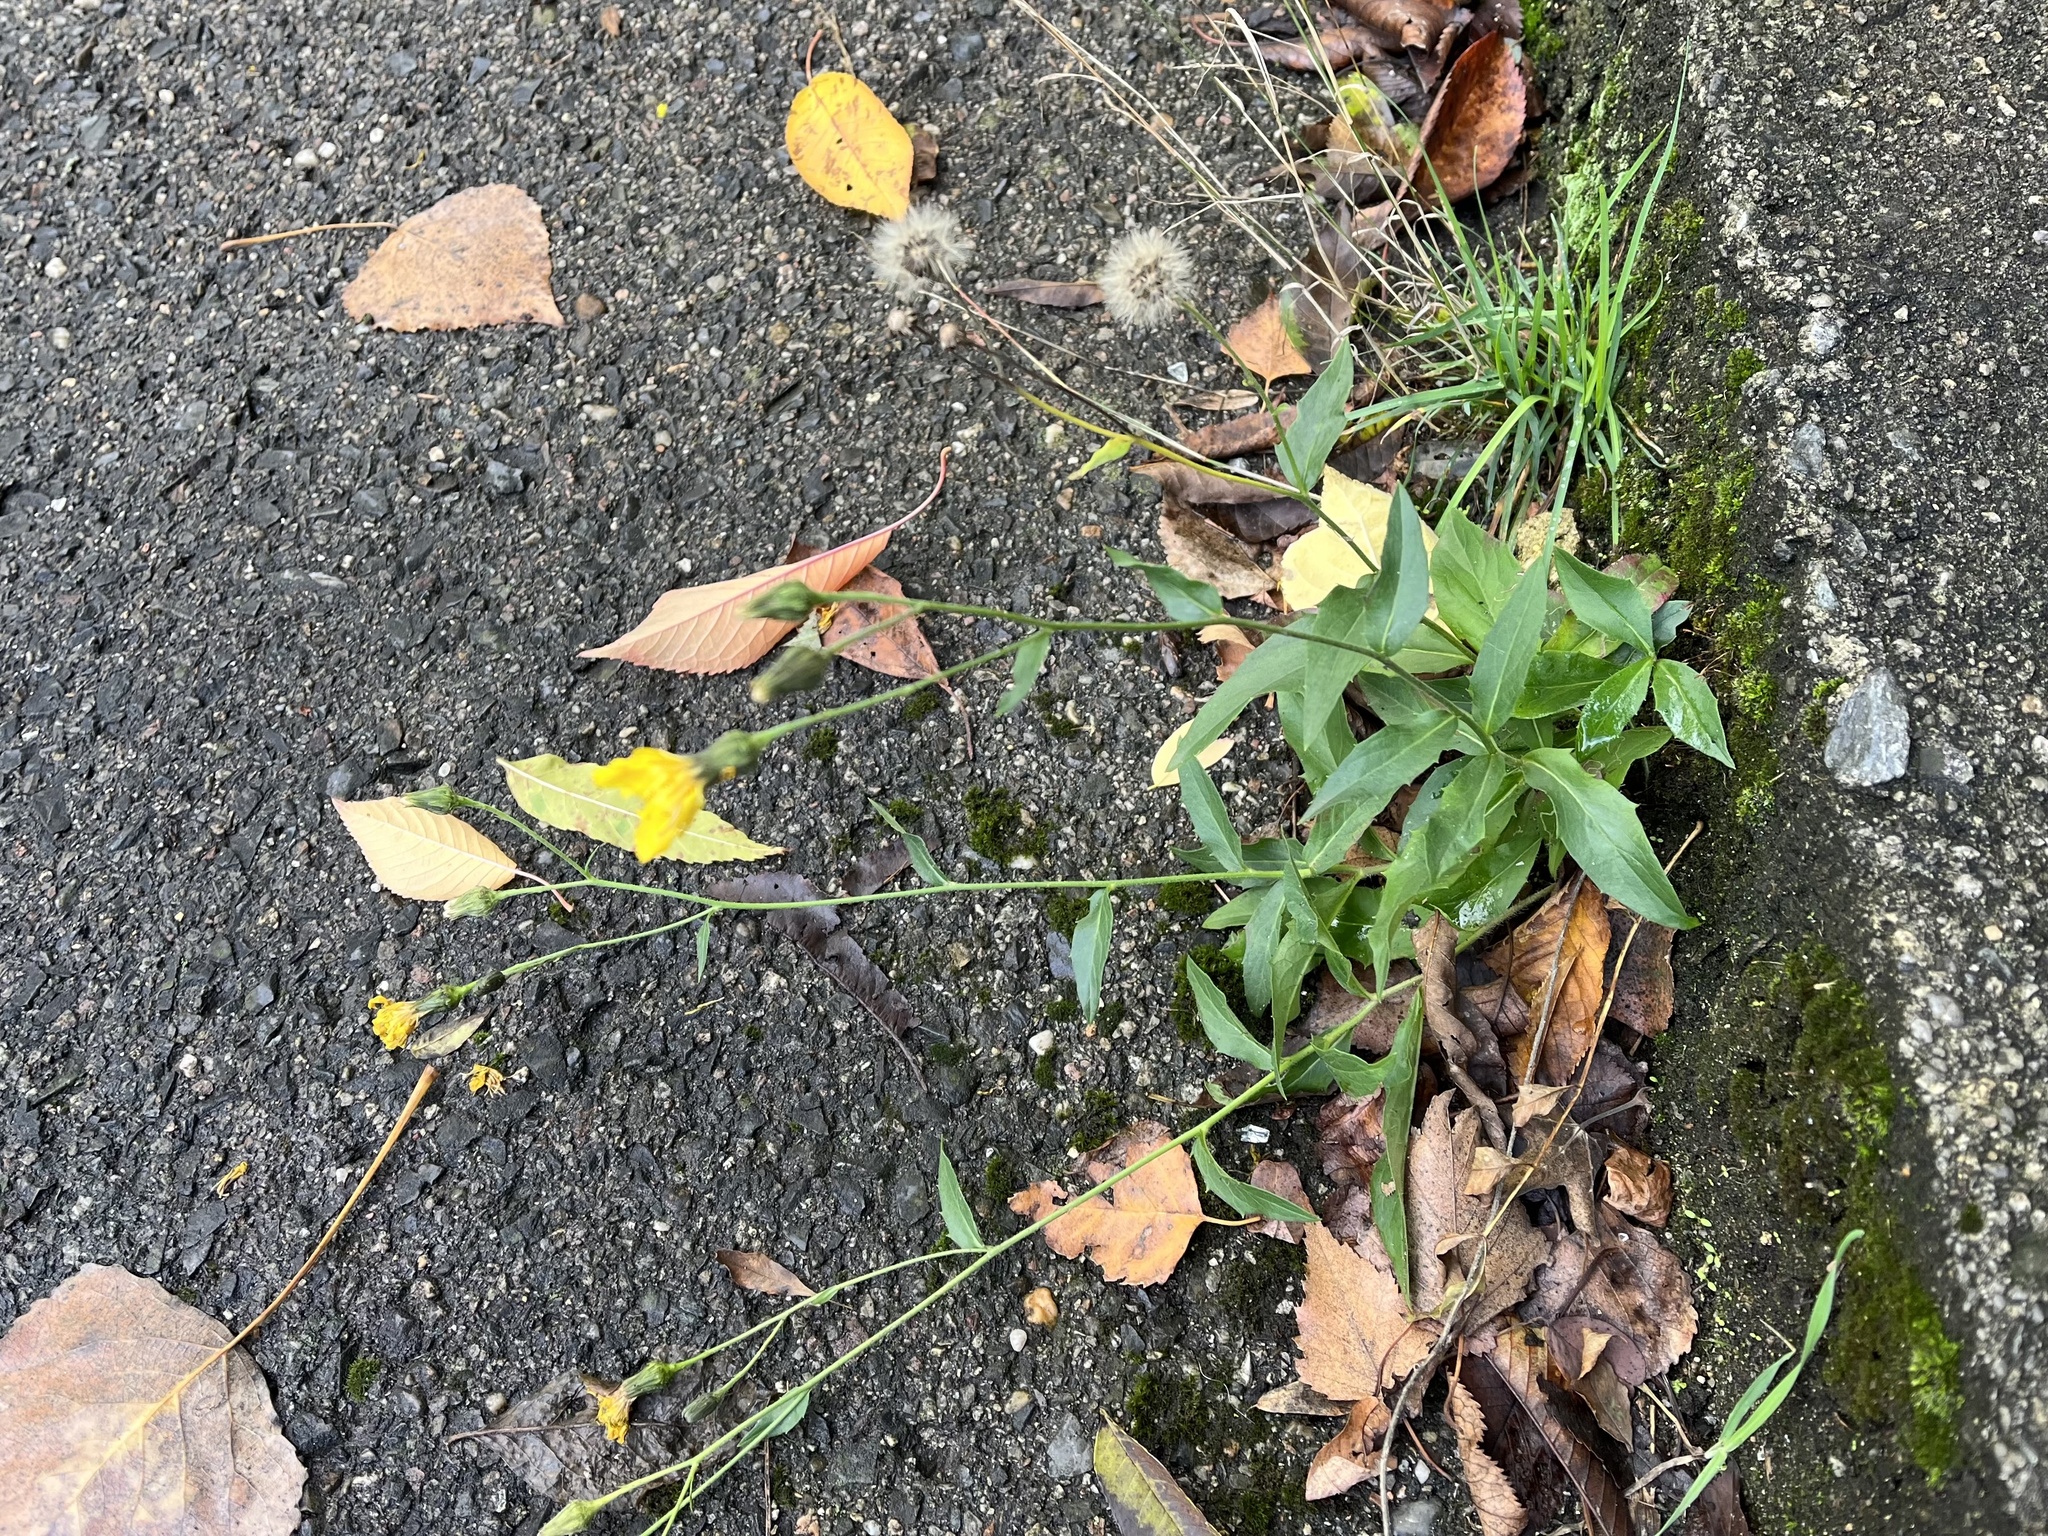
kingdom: Plantae
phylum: Tracheophyta
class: Magnoliopsida
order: Asterales
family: Asteraceae
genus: Hieracium
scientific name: Hieracium sabaudum
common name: New england hawkweed
